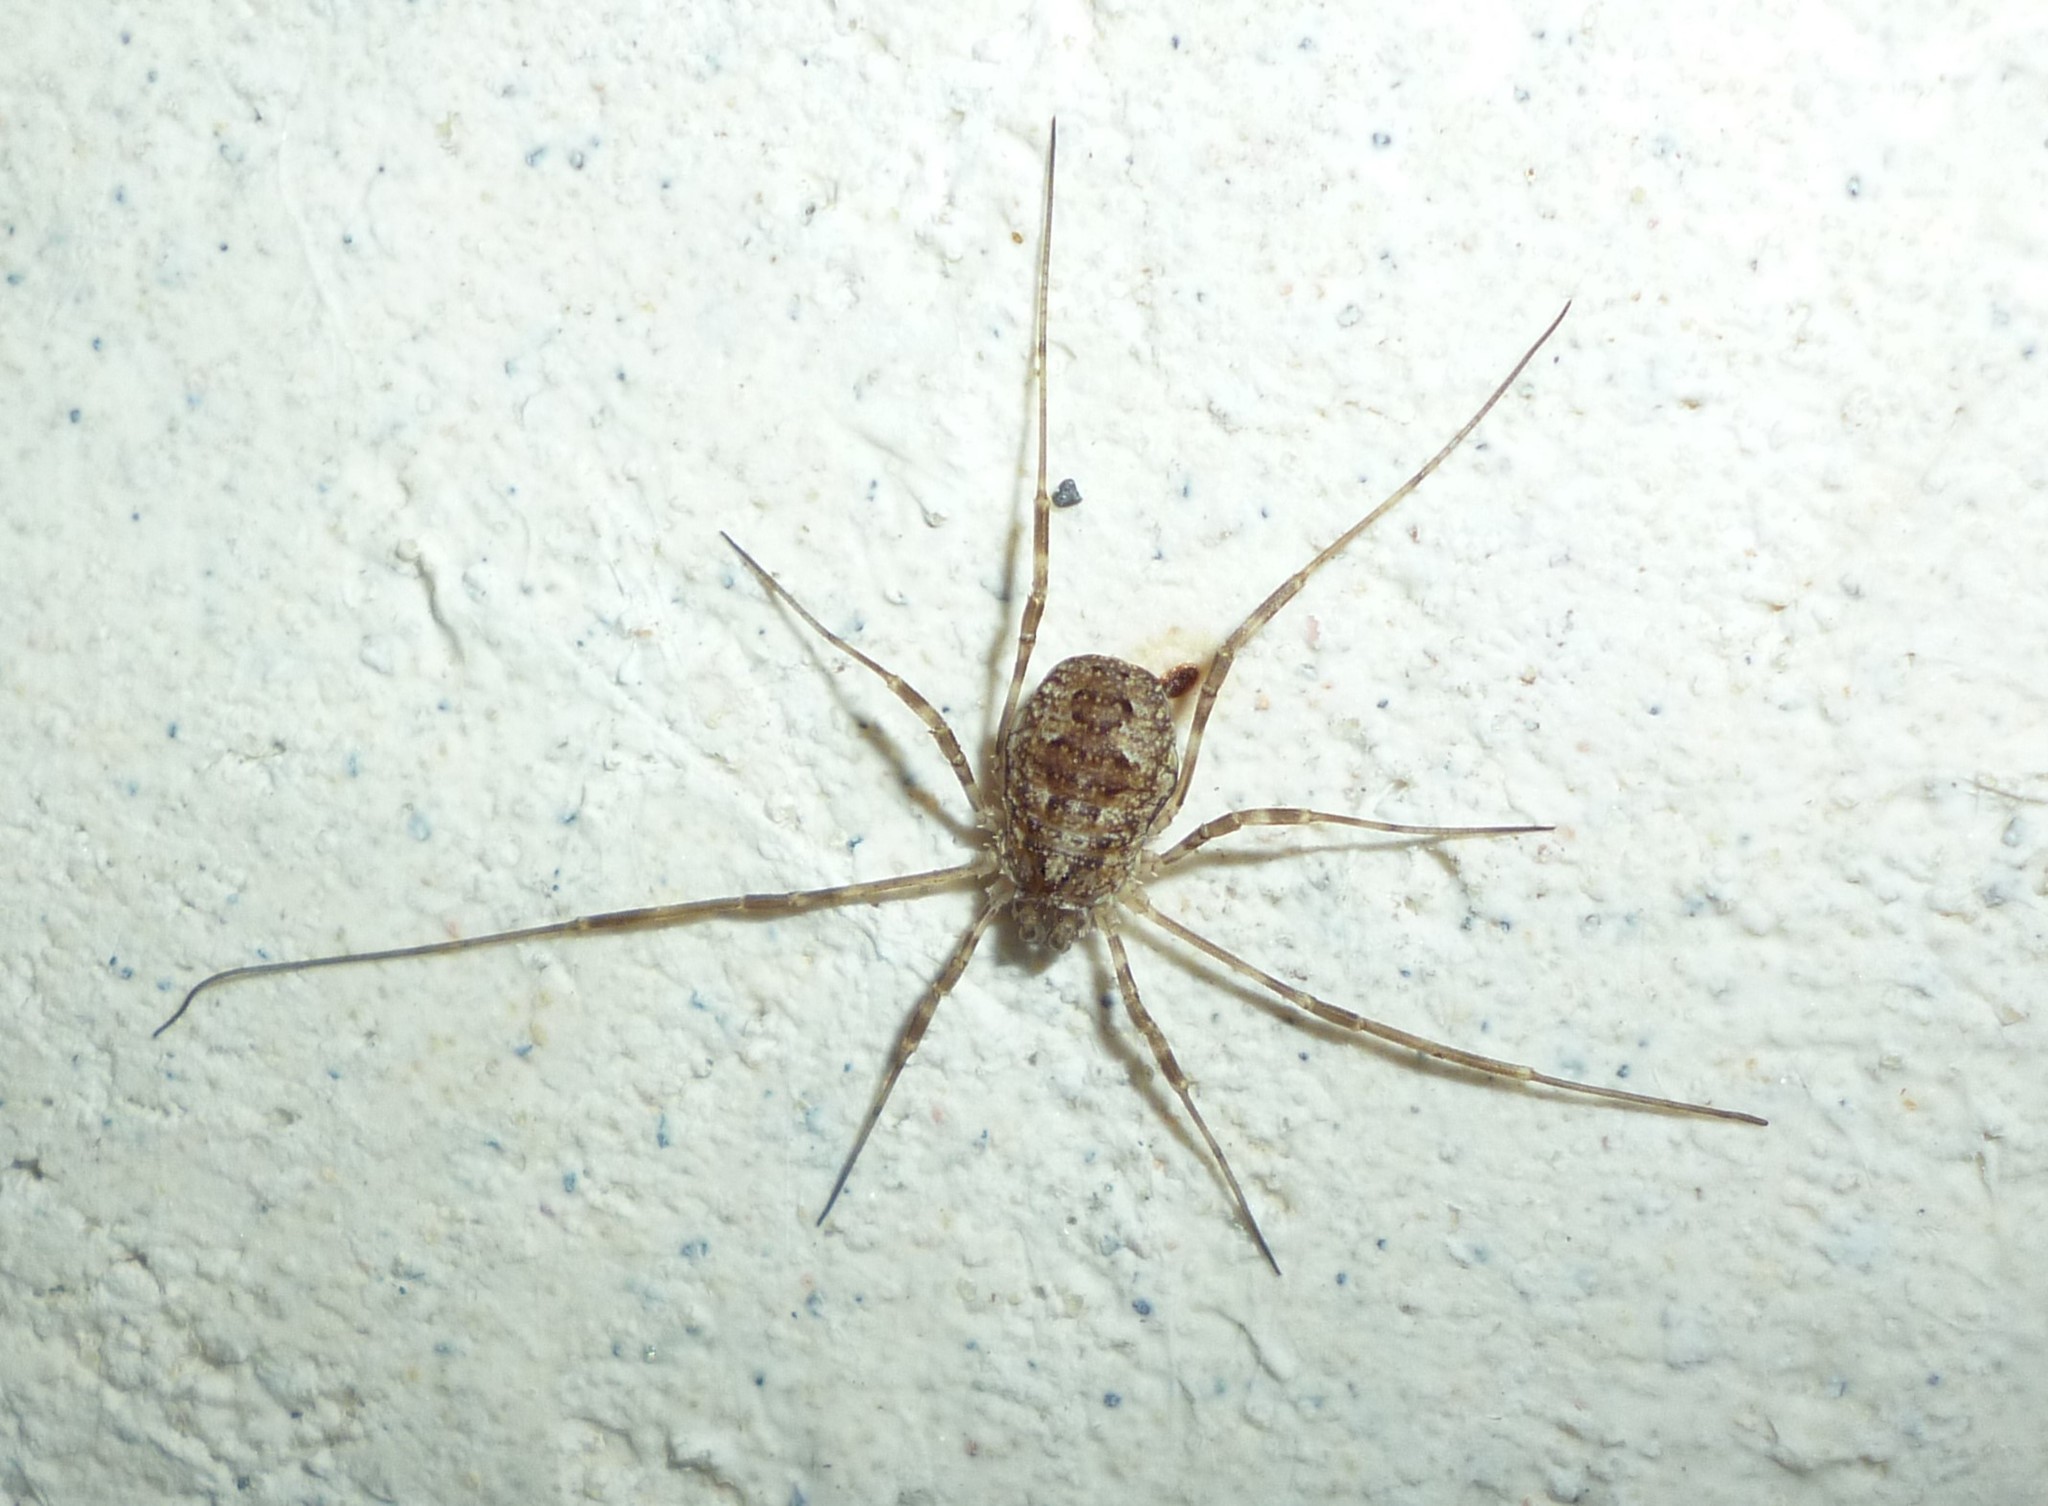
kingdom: Animalia
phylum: Arthropoda
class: Arachnida
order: Opiliones
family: Phalangiidae
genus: Odiellus
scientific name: Odiellus pictus
